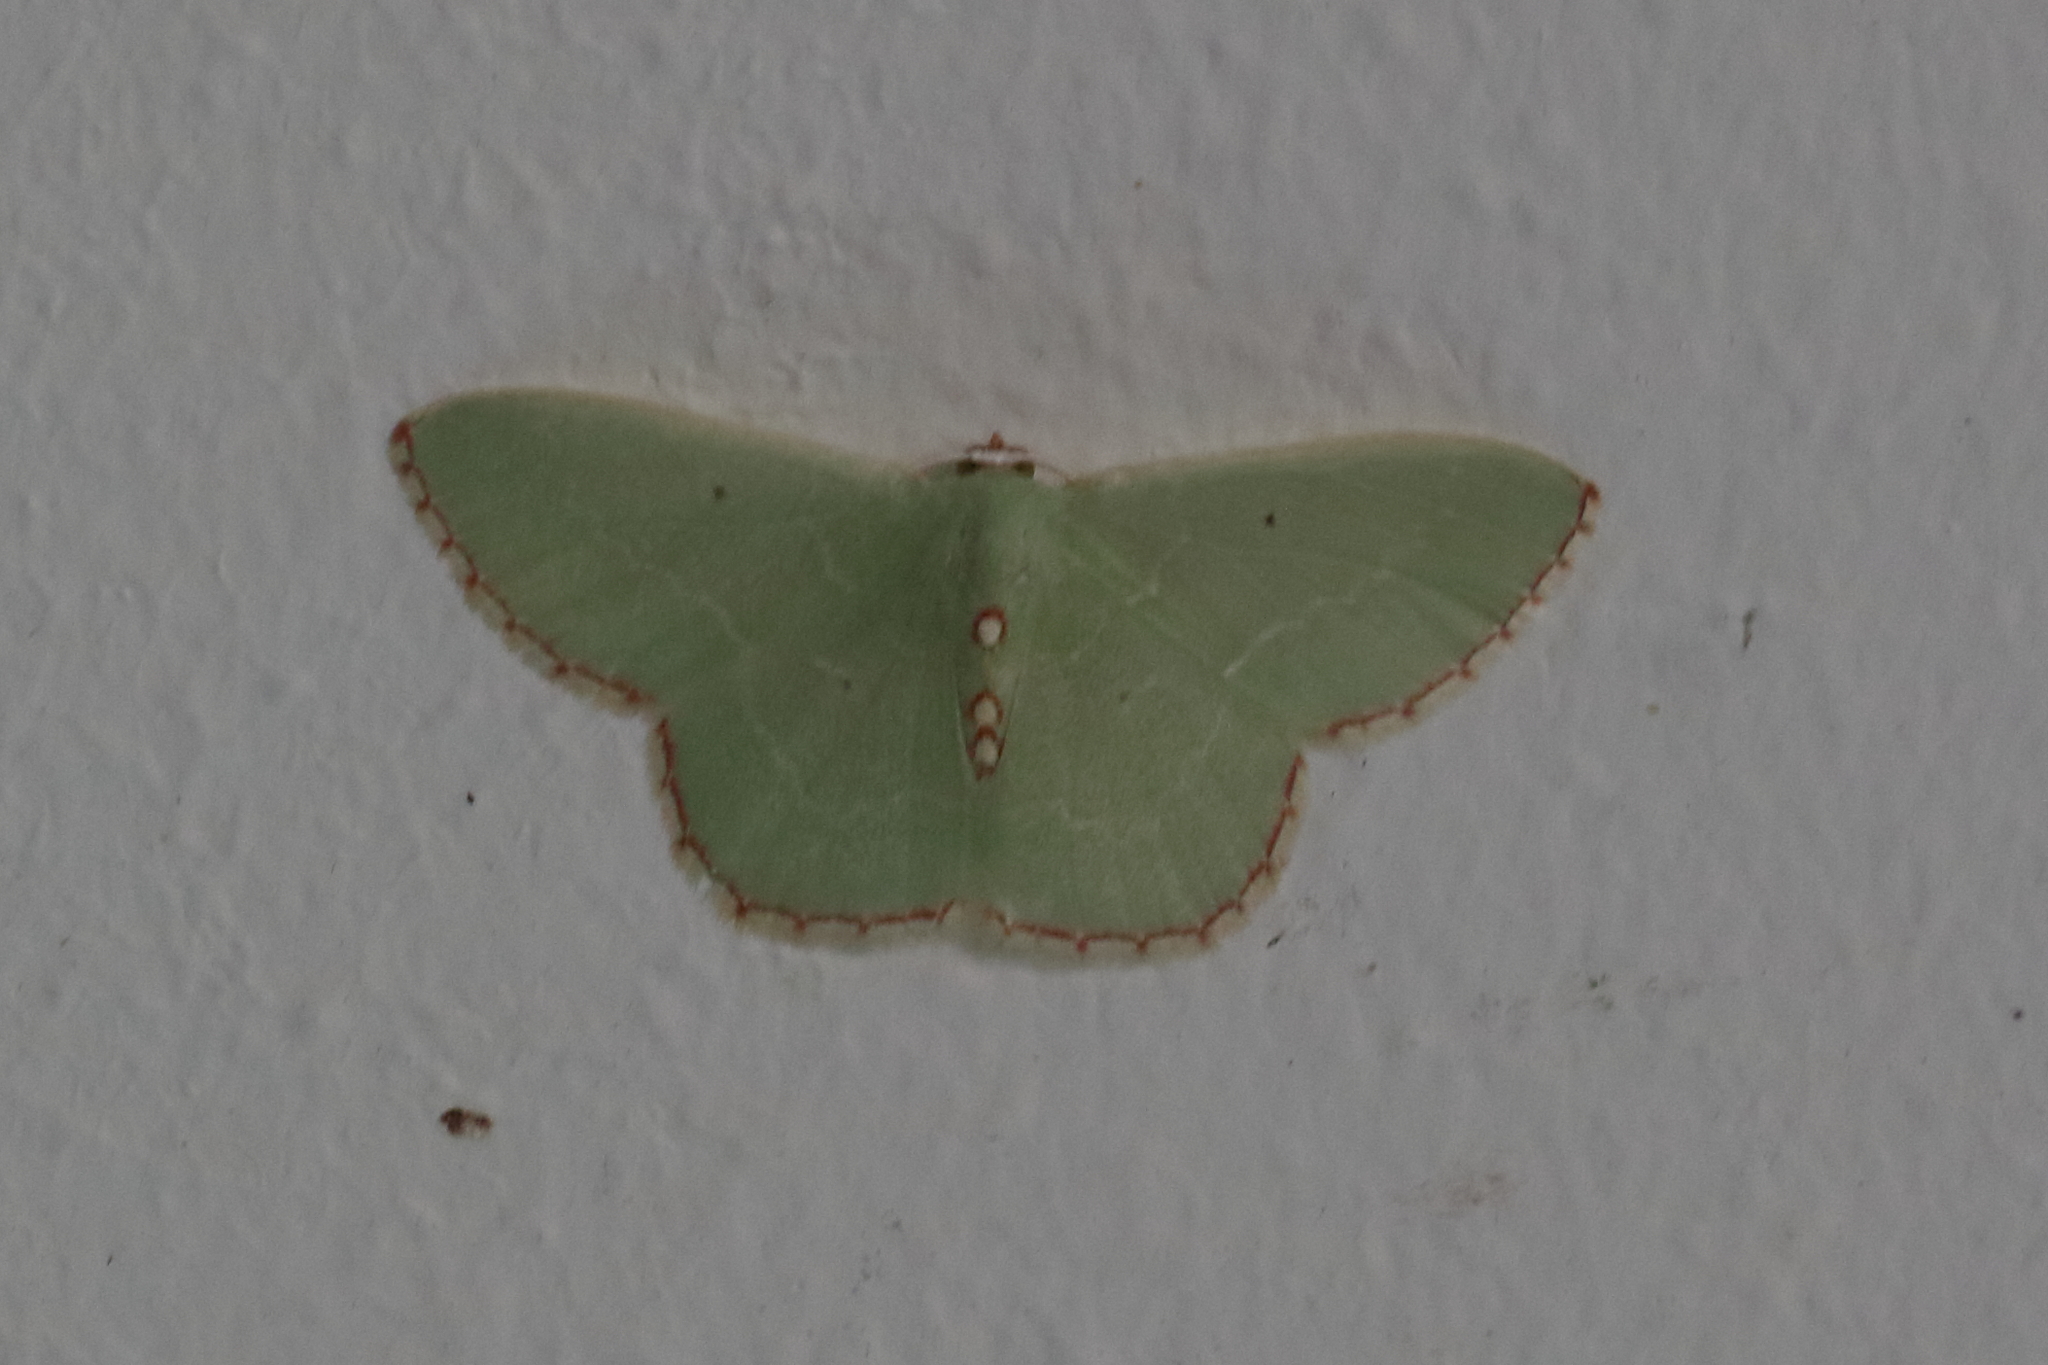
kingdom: Animalia
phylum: Arthropoda
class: Insecta
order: Lepidoptera
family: Geometridae
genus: Nemoria
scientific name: Nemoria lixaria
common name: Red-bordered emerald
